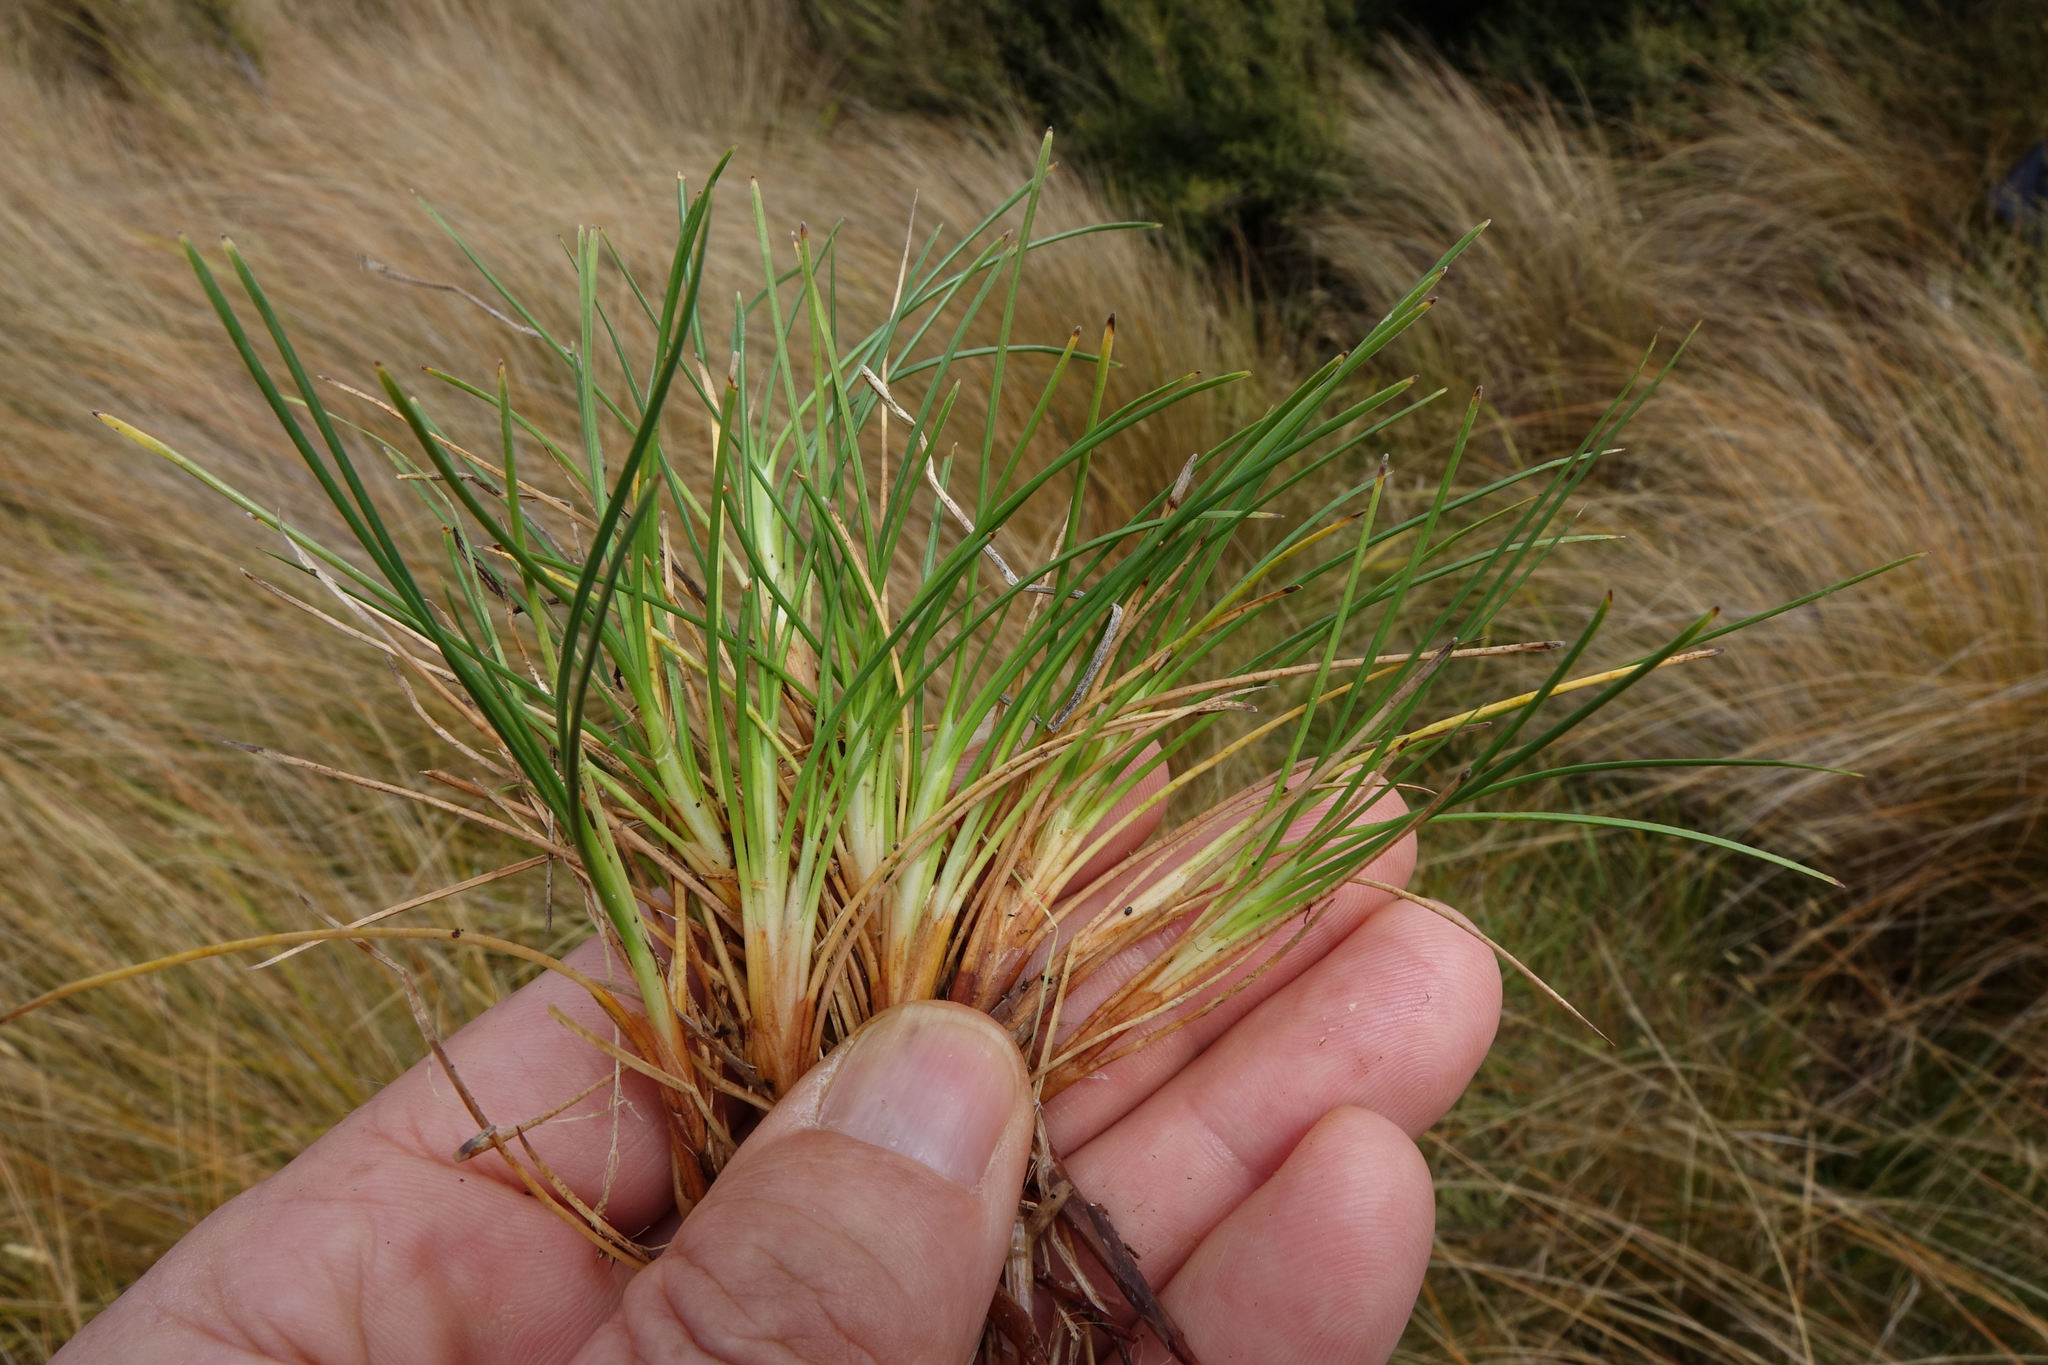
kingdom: Plantae
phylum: Tracheophyta
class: Liliopsida
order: Poales
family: Cyperaceae
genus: Oreobolus
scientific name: Oreobolus strictus
